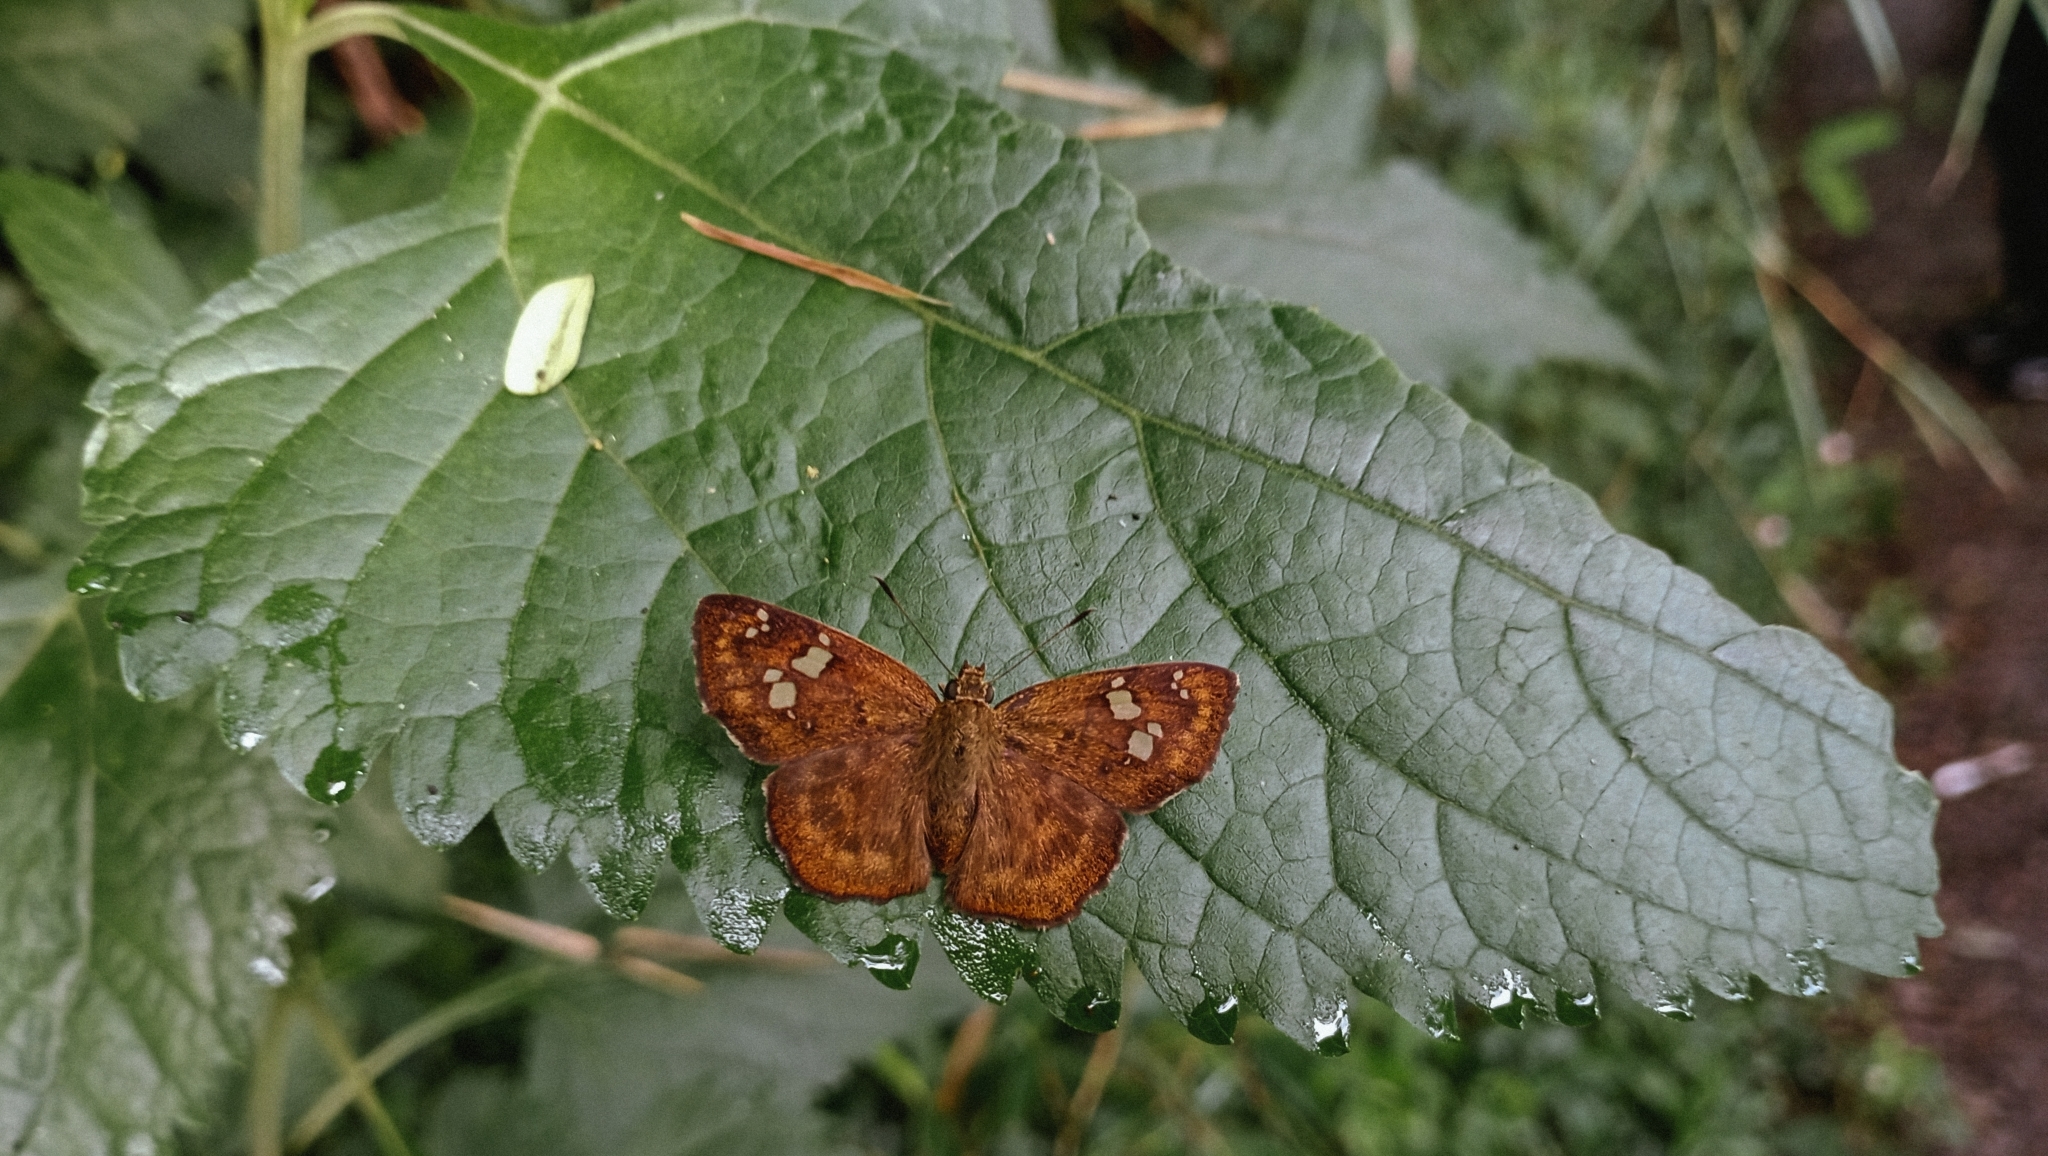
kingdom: Animalia
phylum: Arthropoda
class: Insecta
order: Lepidoptera
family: Hesperiidae
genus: Pseudocoladenia
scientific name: Pseudocoladenia dan
